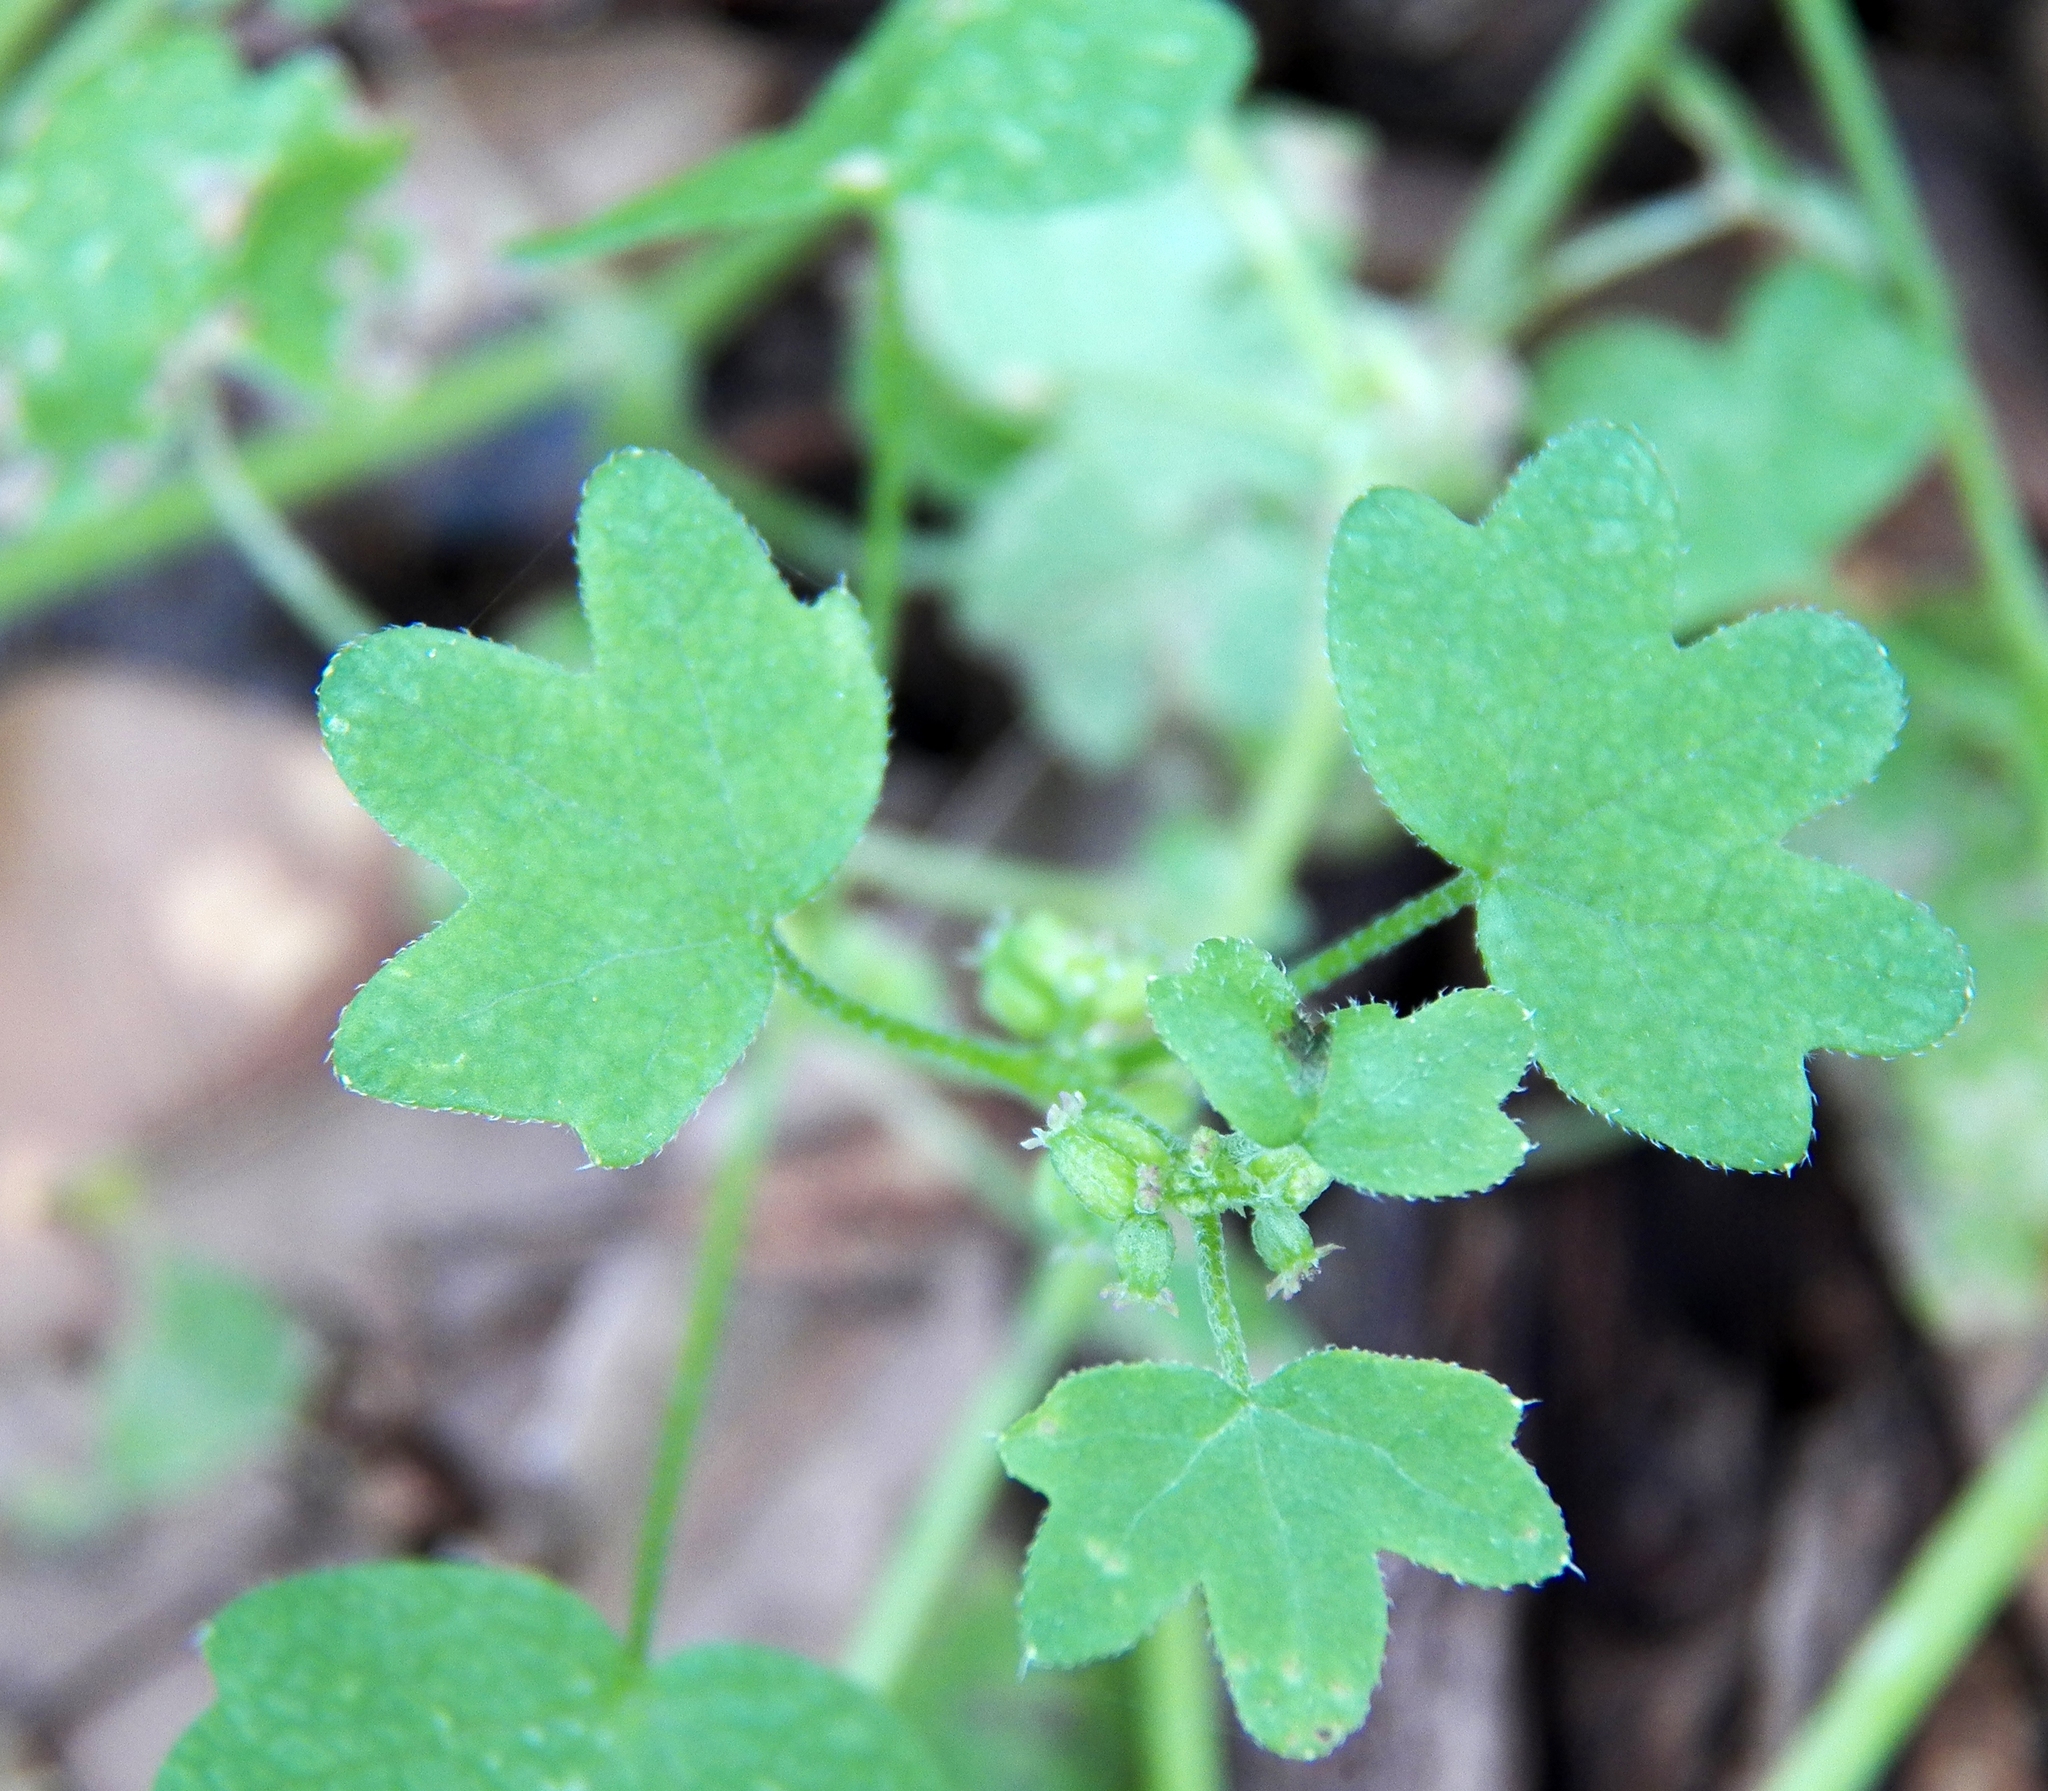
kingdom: Plantae
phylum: Tracheophyta
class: Magnoliopsida
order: Apiales
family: Apiaceae
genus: Bowlesia
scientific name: Bowlesia incana
